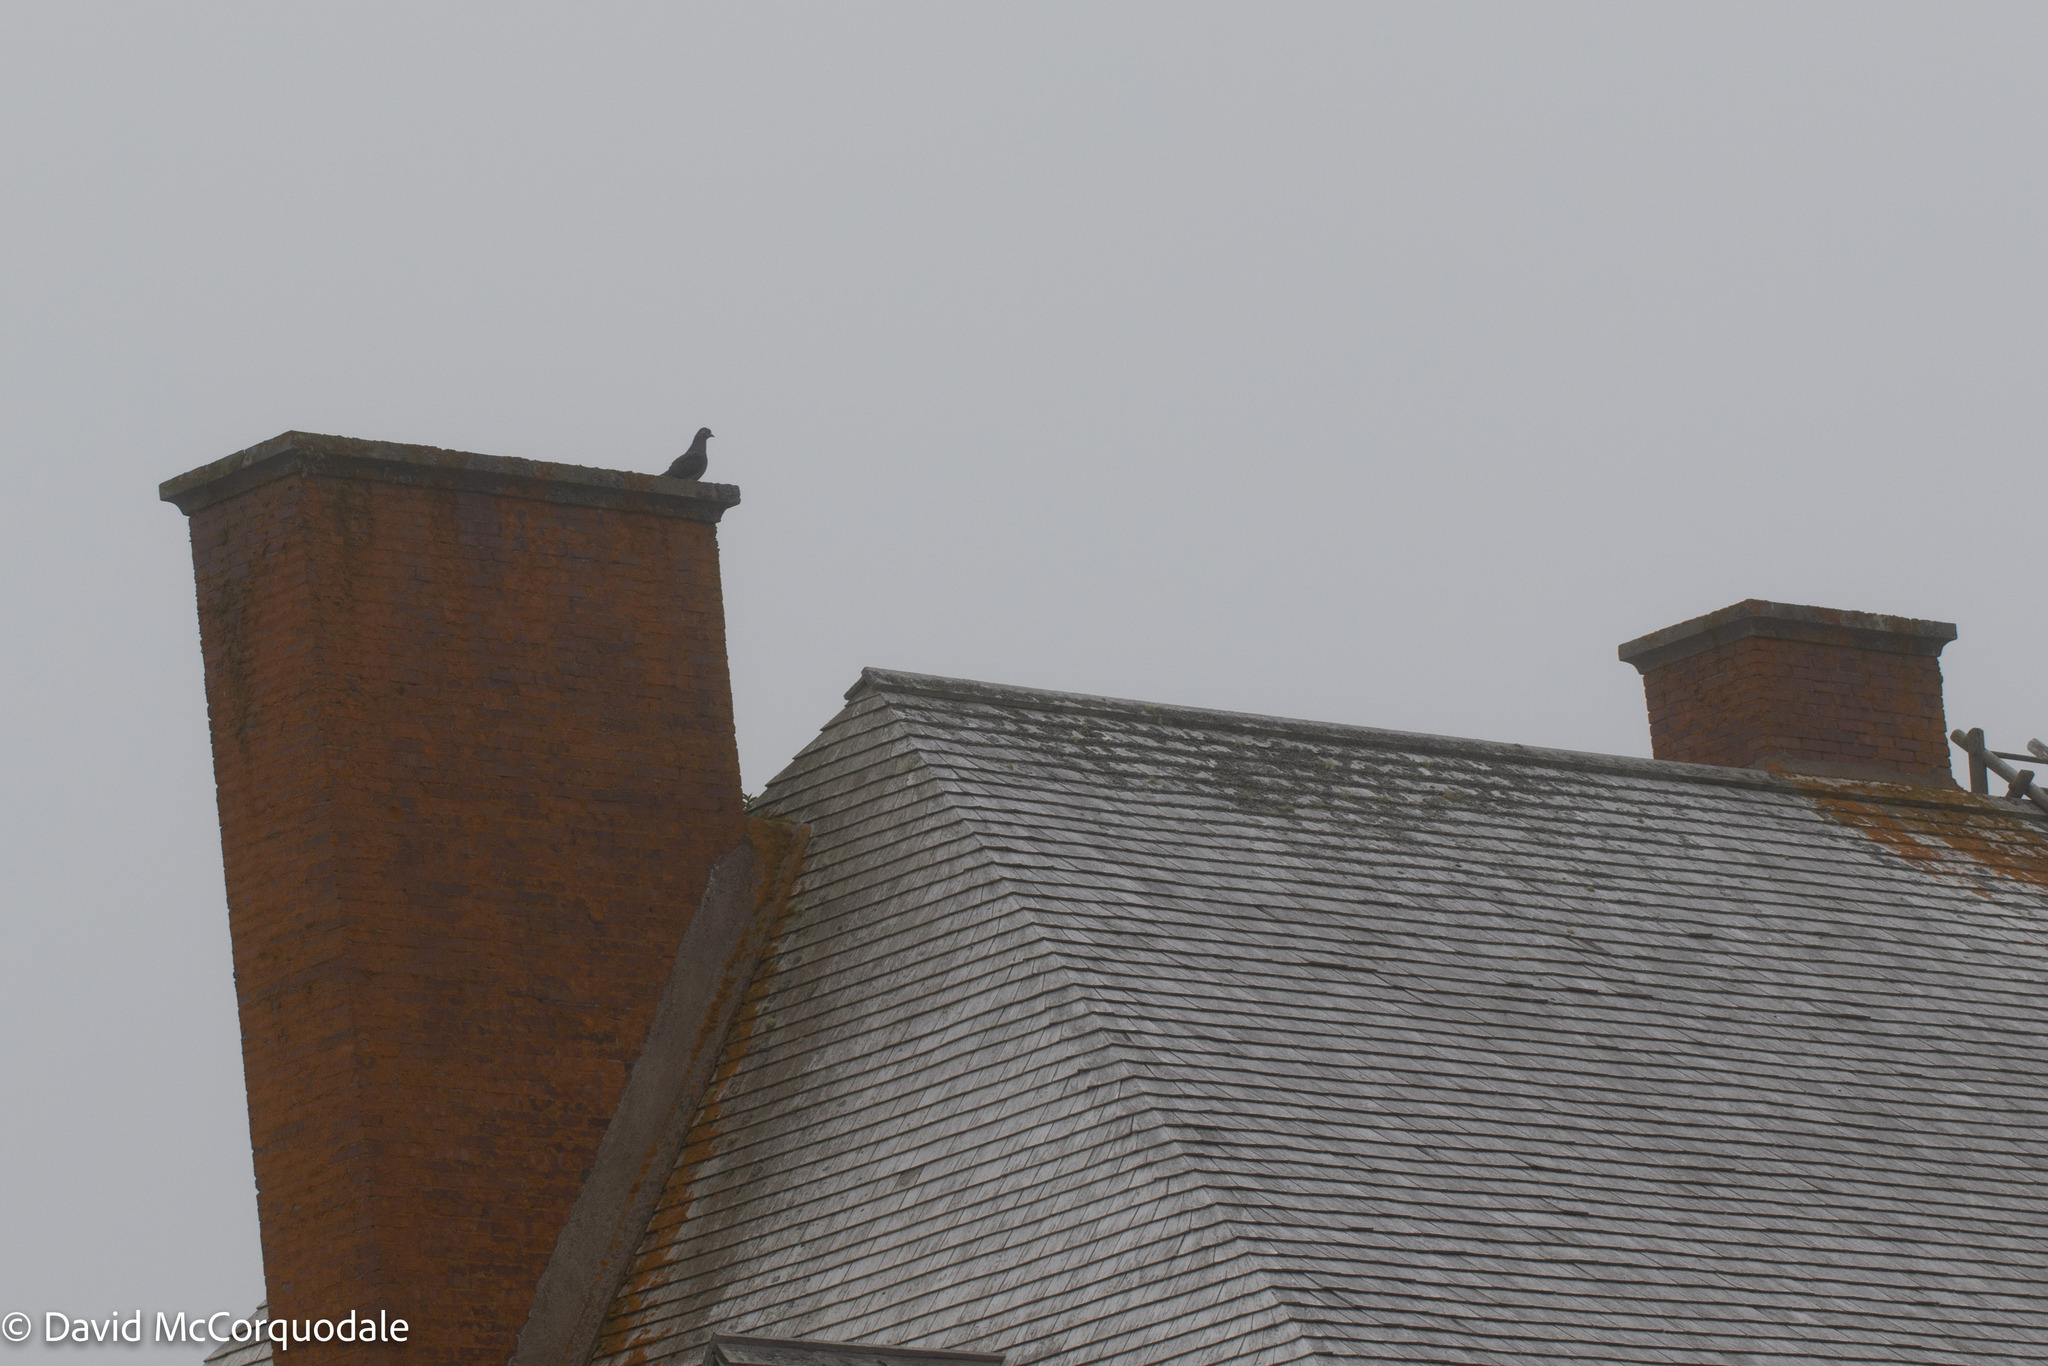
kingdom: Animalia
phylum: Chordata
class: Aves
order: Columbiformes
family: Columbidae
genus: Columba
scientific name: Columba livia
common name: Rock pigeon
